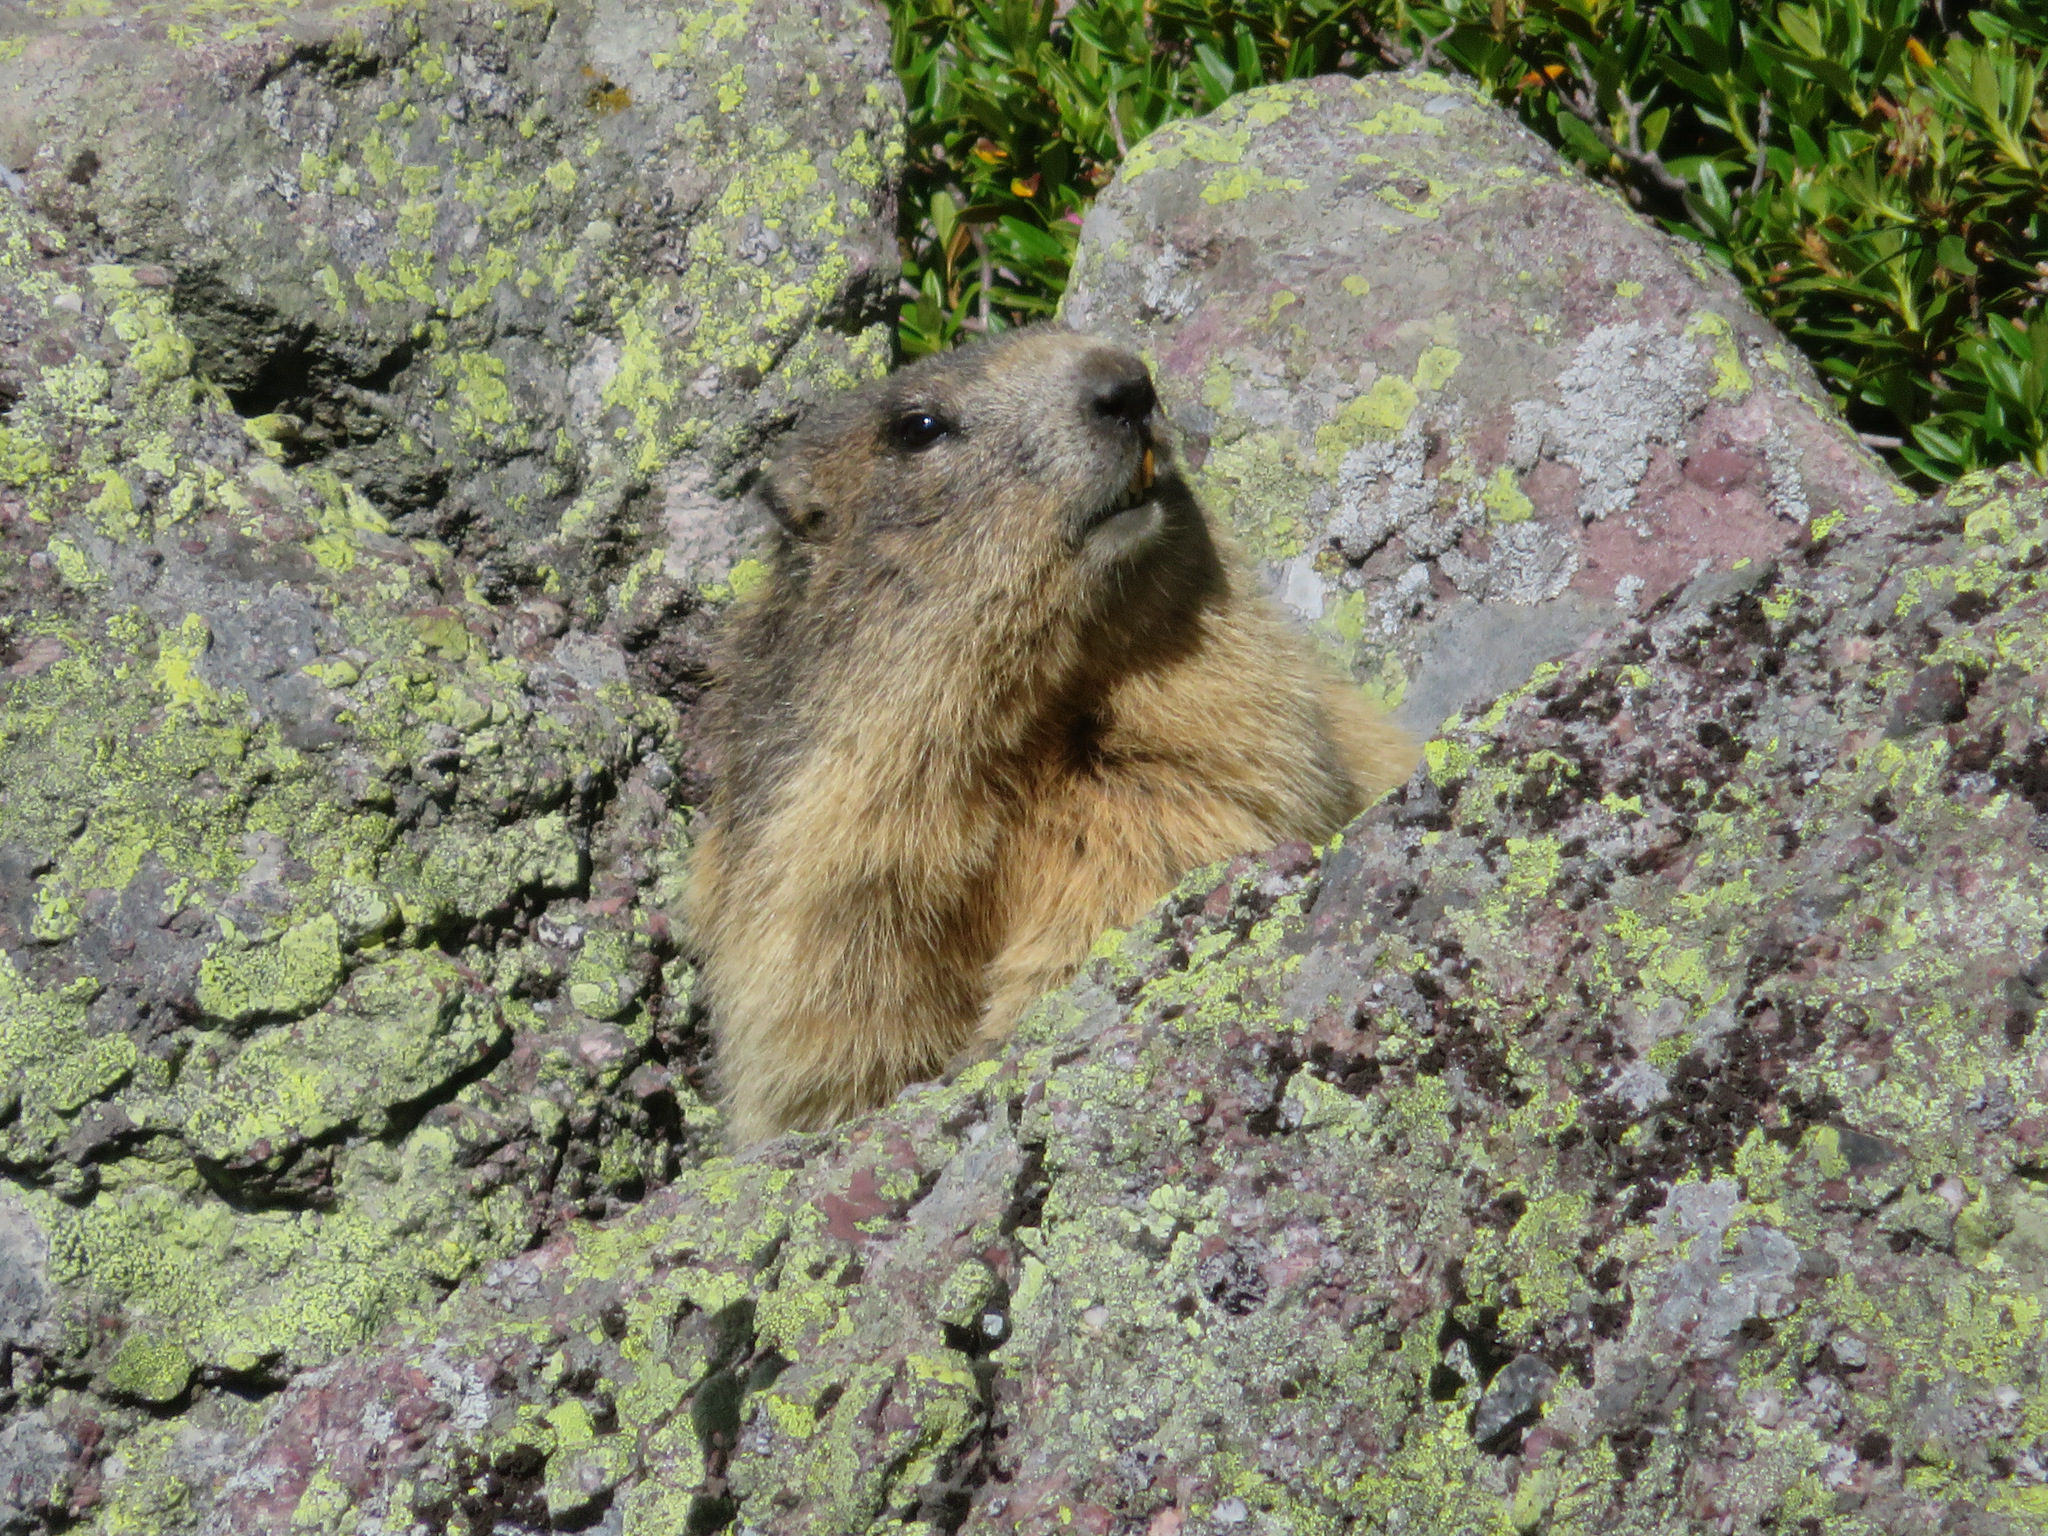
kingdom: Animalia
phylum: Chordata
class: Mammalia
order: Rodentia
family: Sciuridae
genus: Marmota
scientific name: Marmota marmota
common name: Alpine marmot
